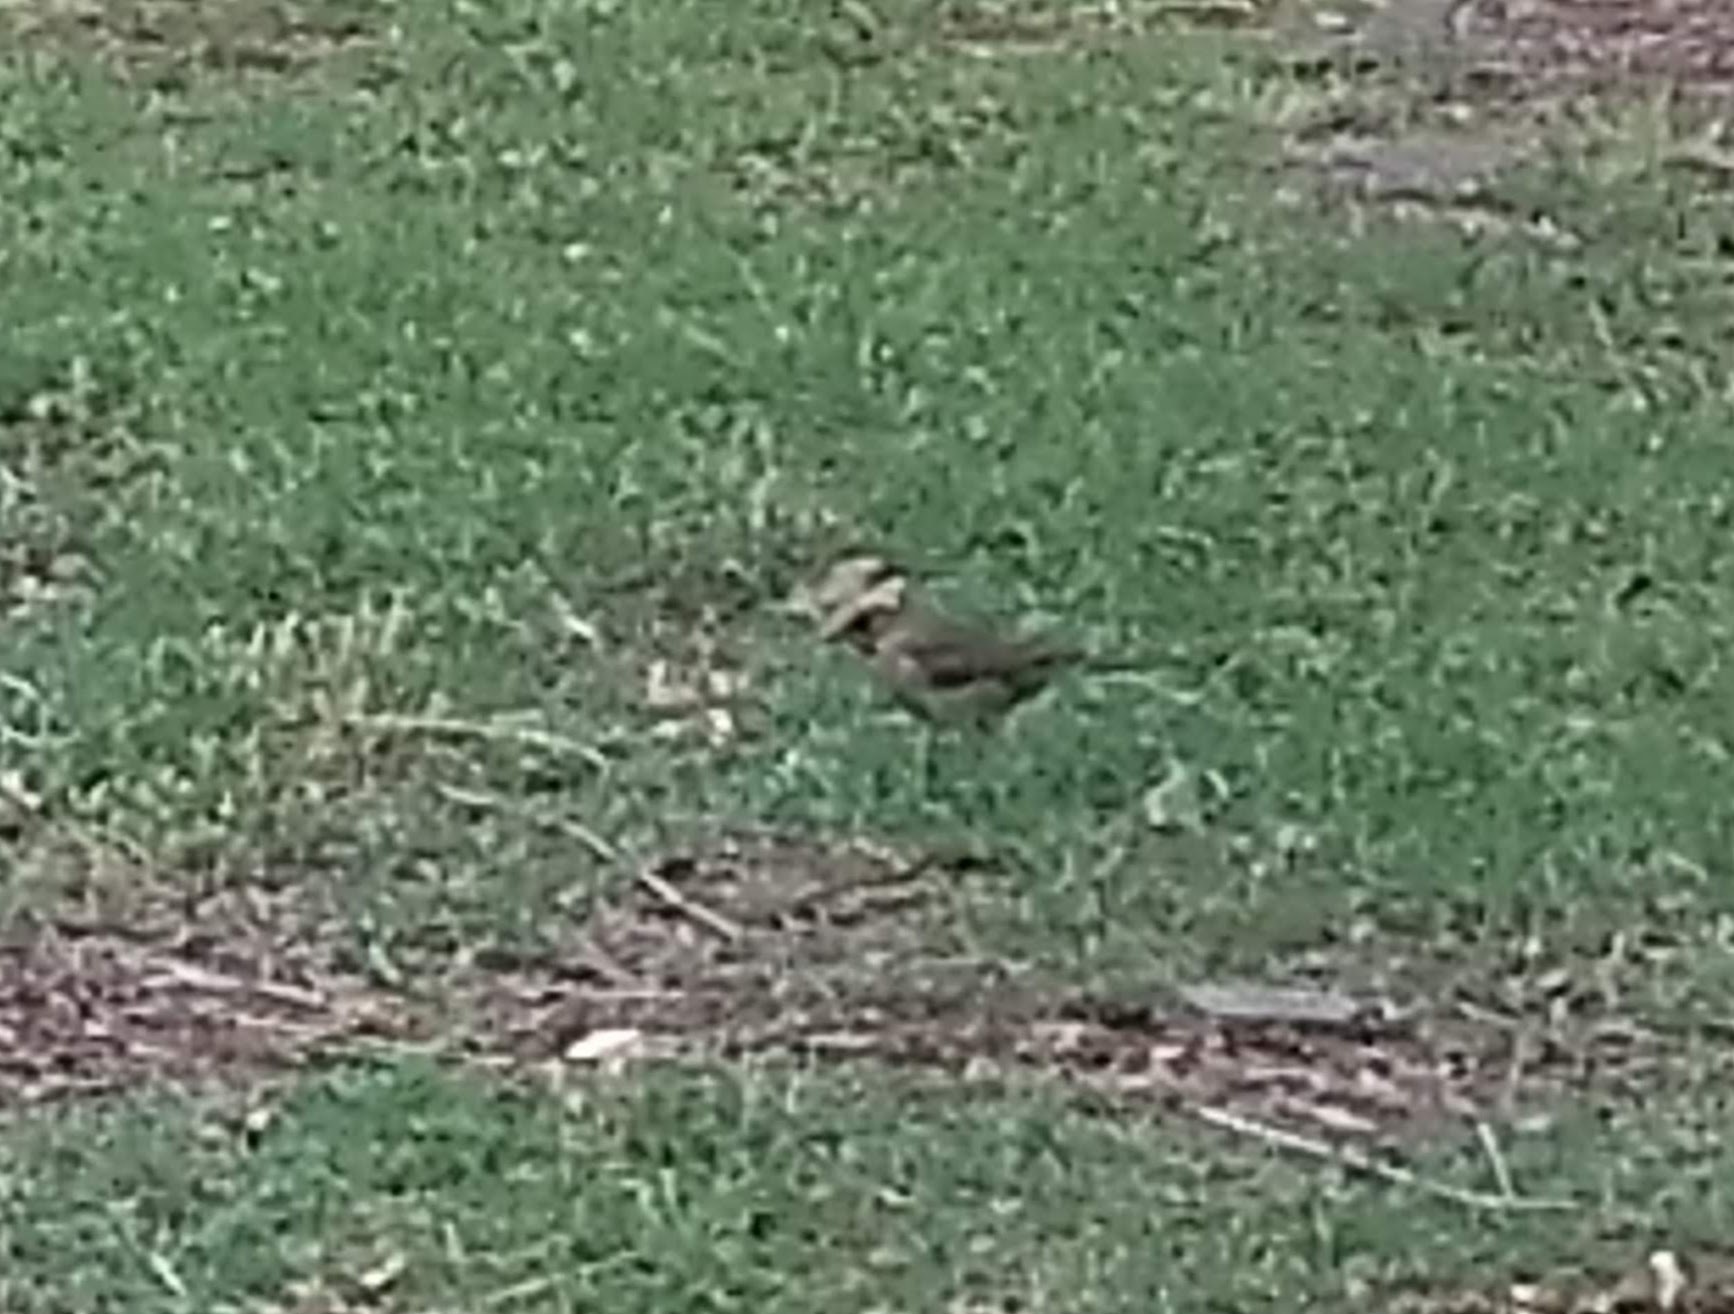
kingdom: Animalia
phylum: Chordata
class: Aves
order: Passeriformes
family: Turdidae
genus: Turdus
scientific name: Turdus amaurochalinus
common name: Creamy-bellied thrush
